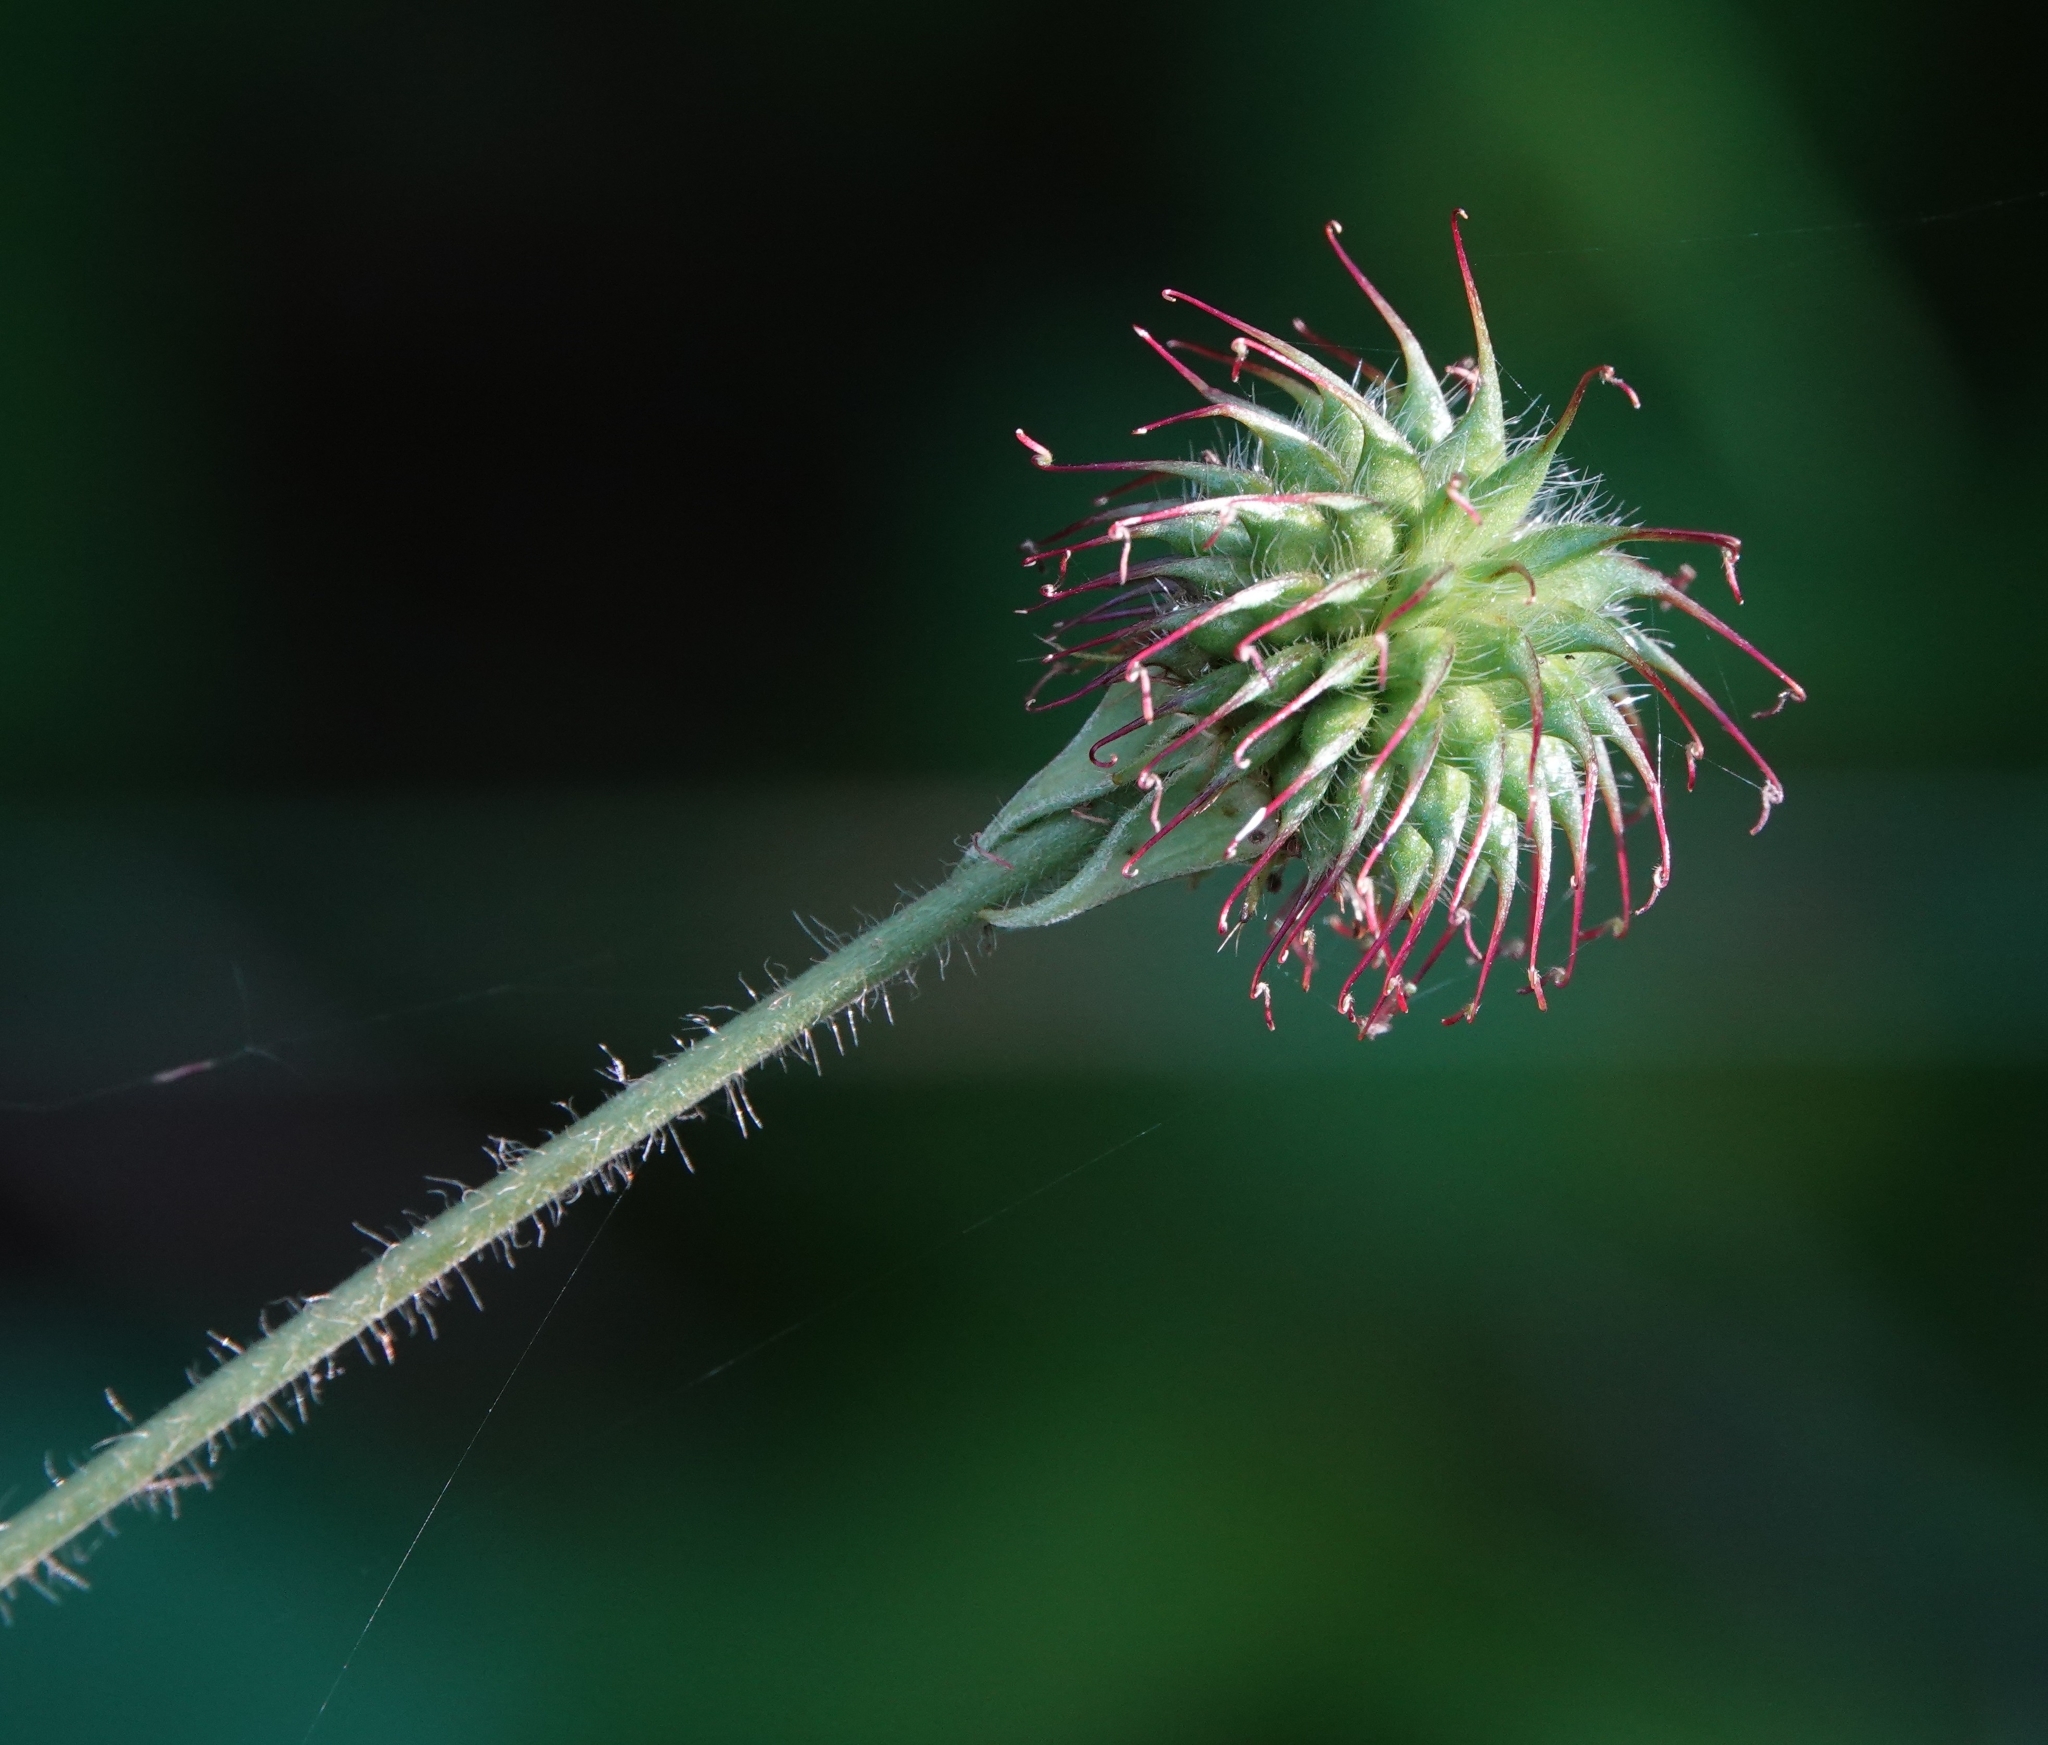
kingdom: Plantae
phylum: Tracheophyta
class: Magnoliopsida
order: Rosales
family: Rosaceae
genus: Geum
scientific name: Geum urbanum
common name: Wood avens
